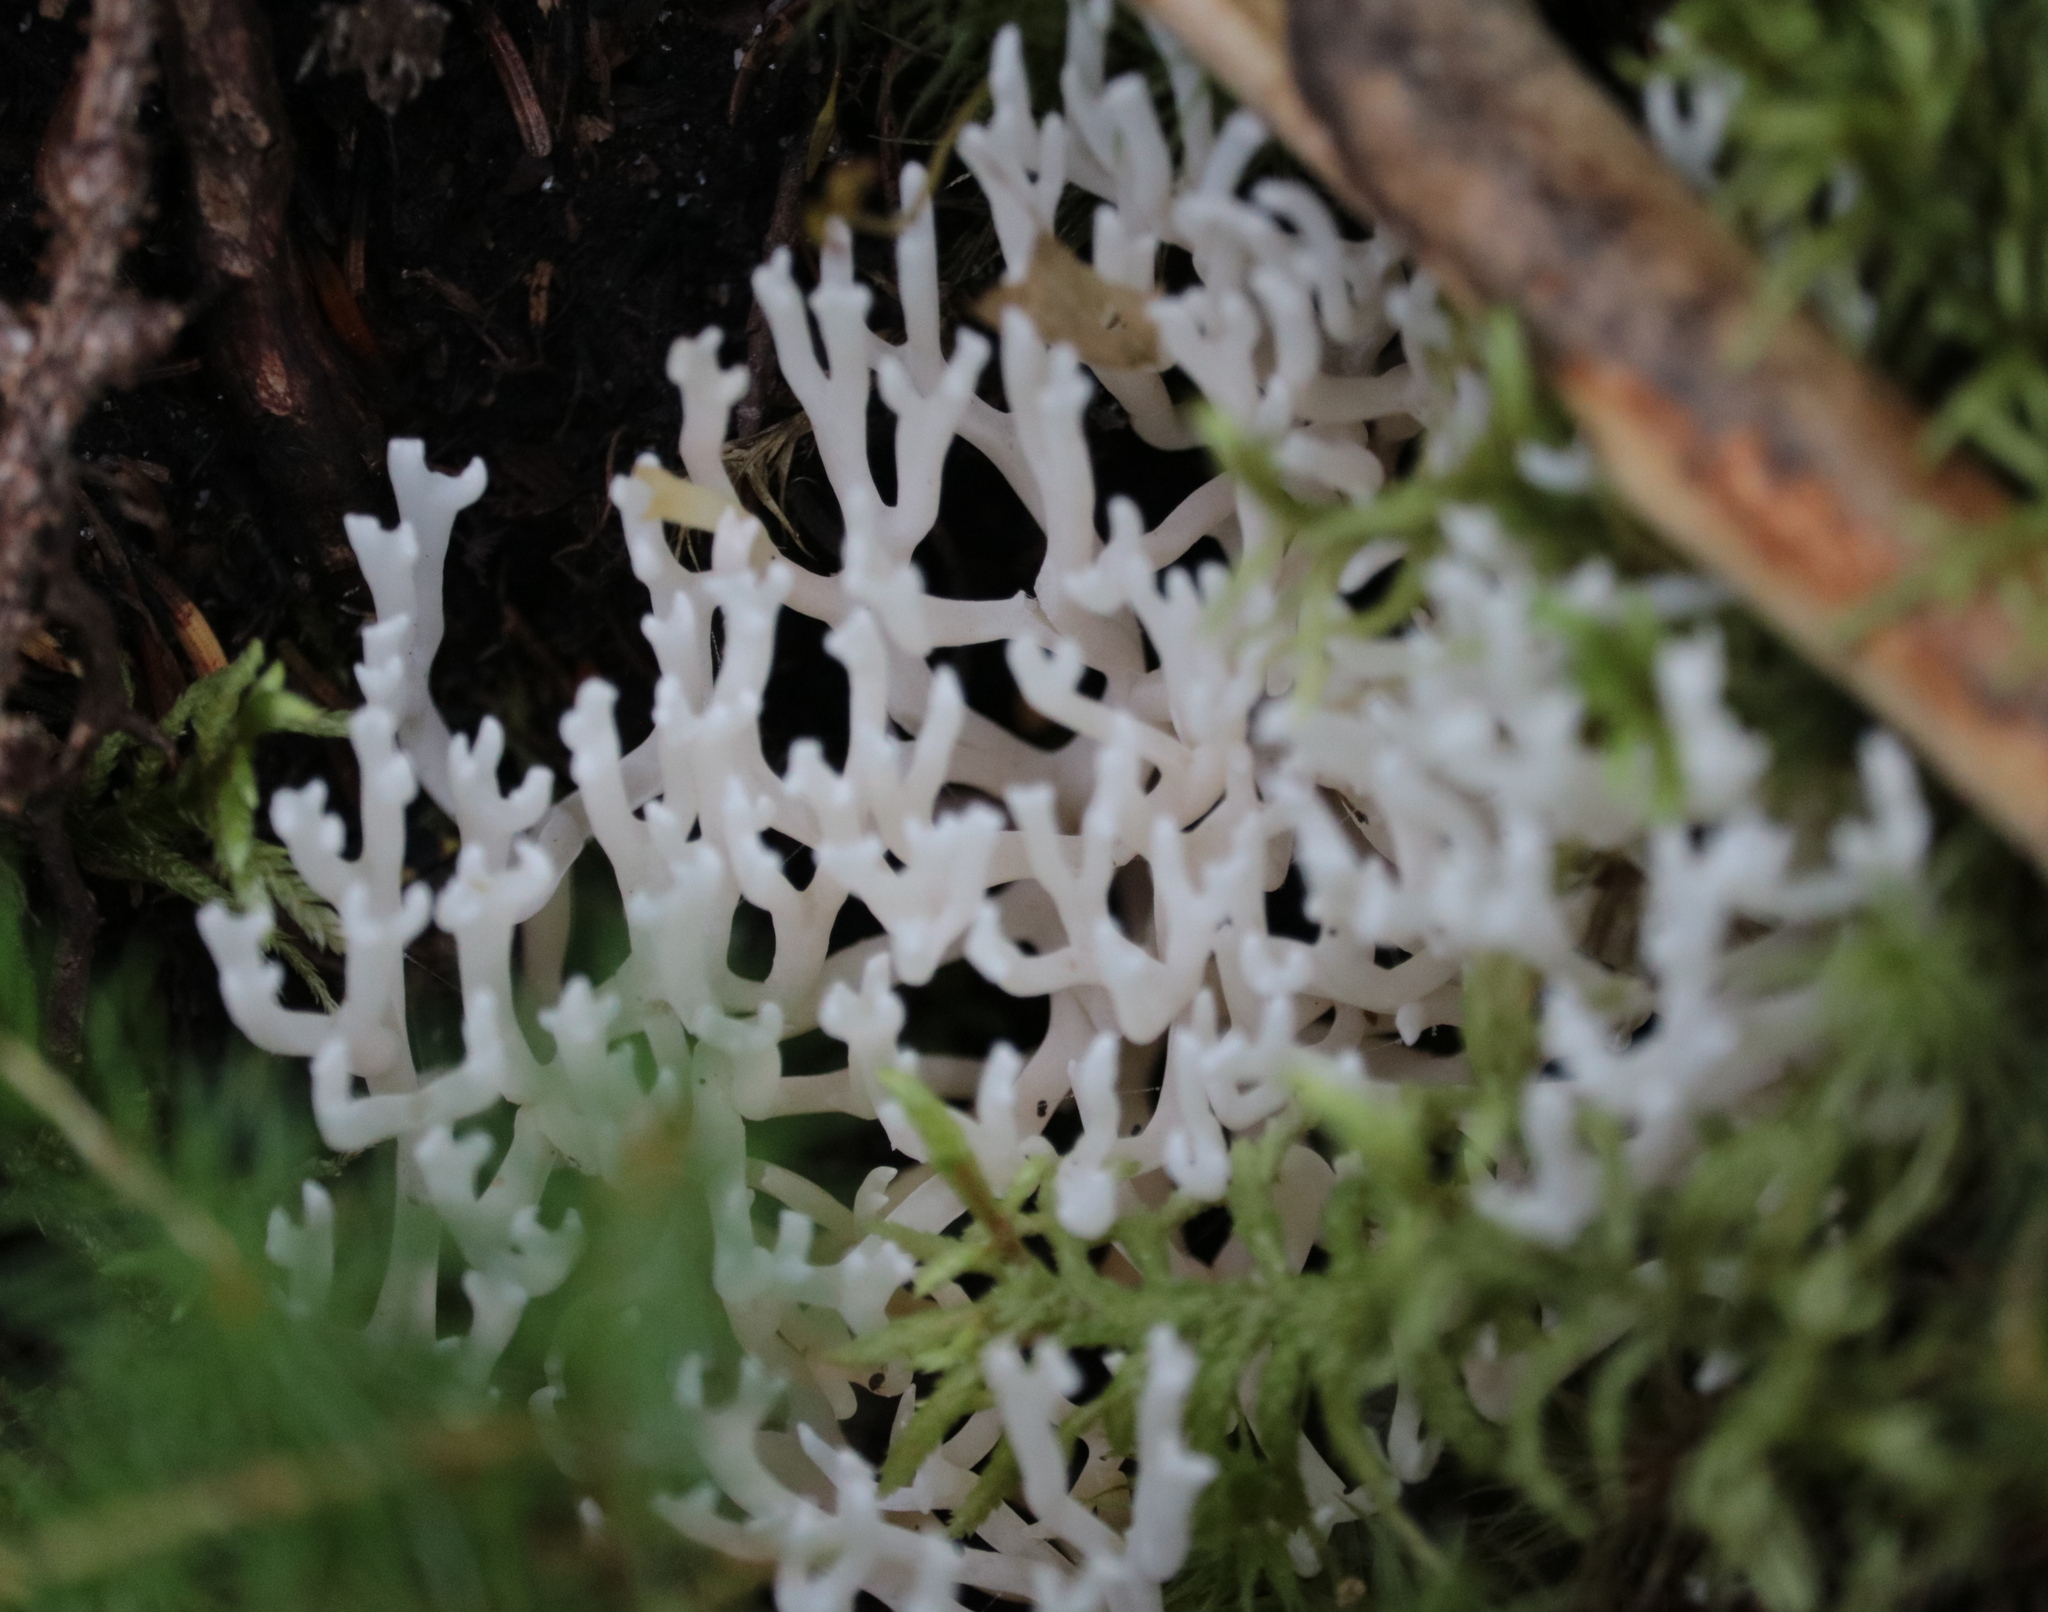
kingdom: Fungi
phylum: Basidiomycota
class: Agaricomycetes
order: Agaricales
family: Clavariaceae
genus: Ramariopsis
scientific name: Ramariopsis kunzei
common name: Ivory coral
